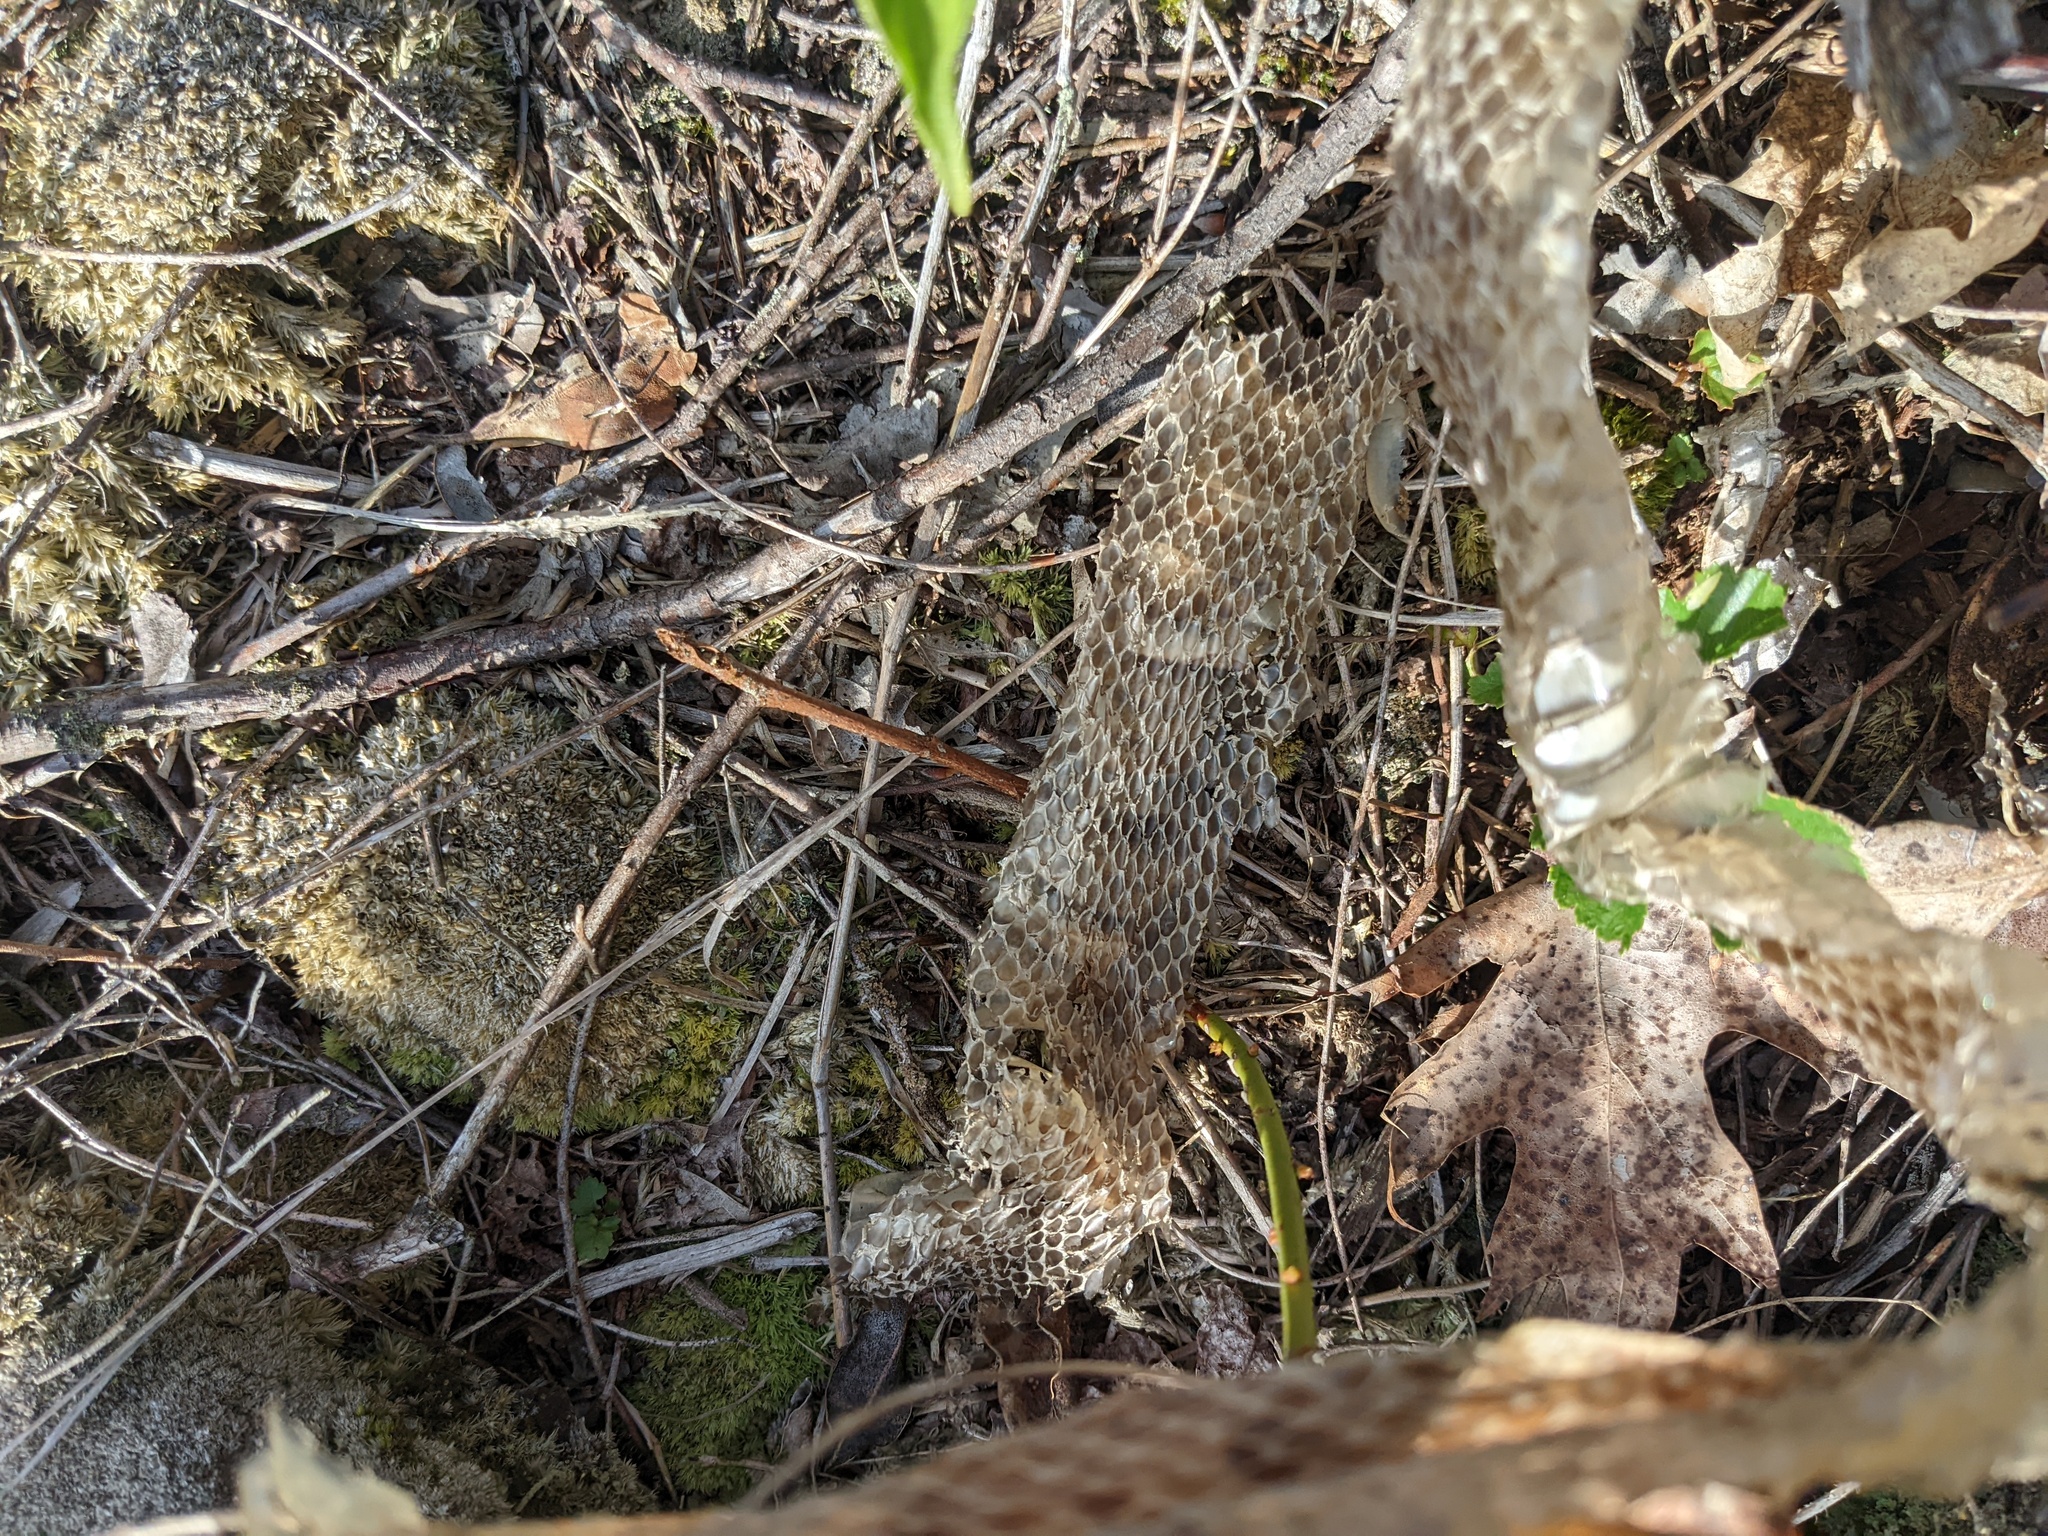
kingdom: Animalia
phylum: Chordata
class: Squamata
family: Colubridae
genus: Lampropeltis
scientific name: Lampropeltis triangulum
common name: Eastern milksnake
